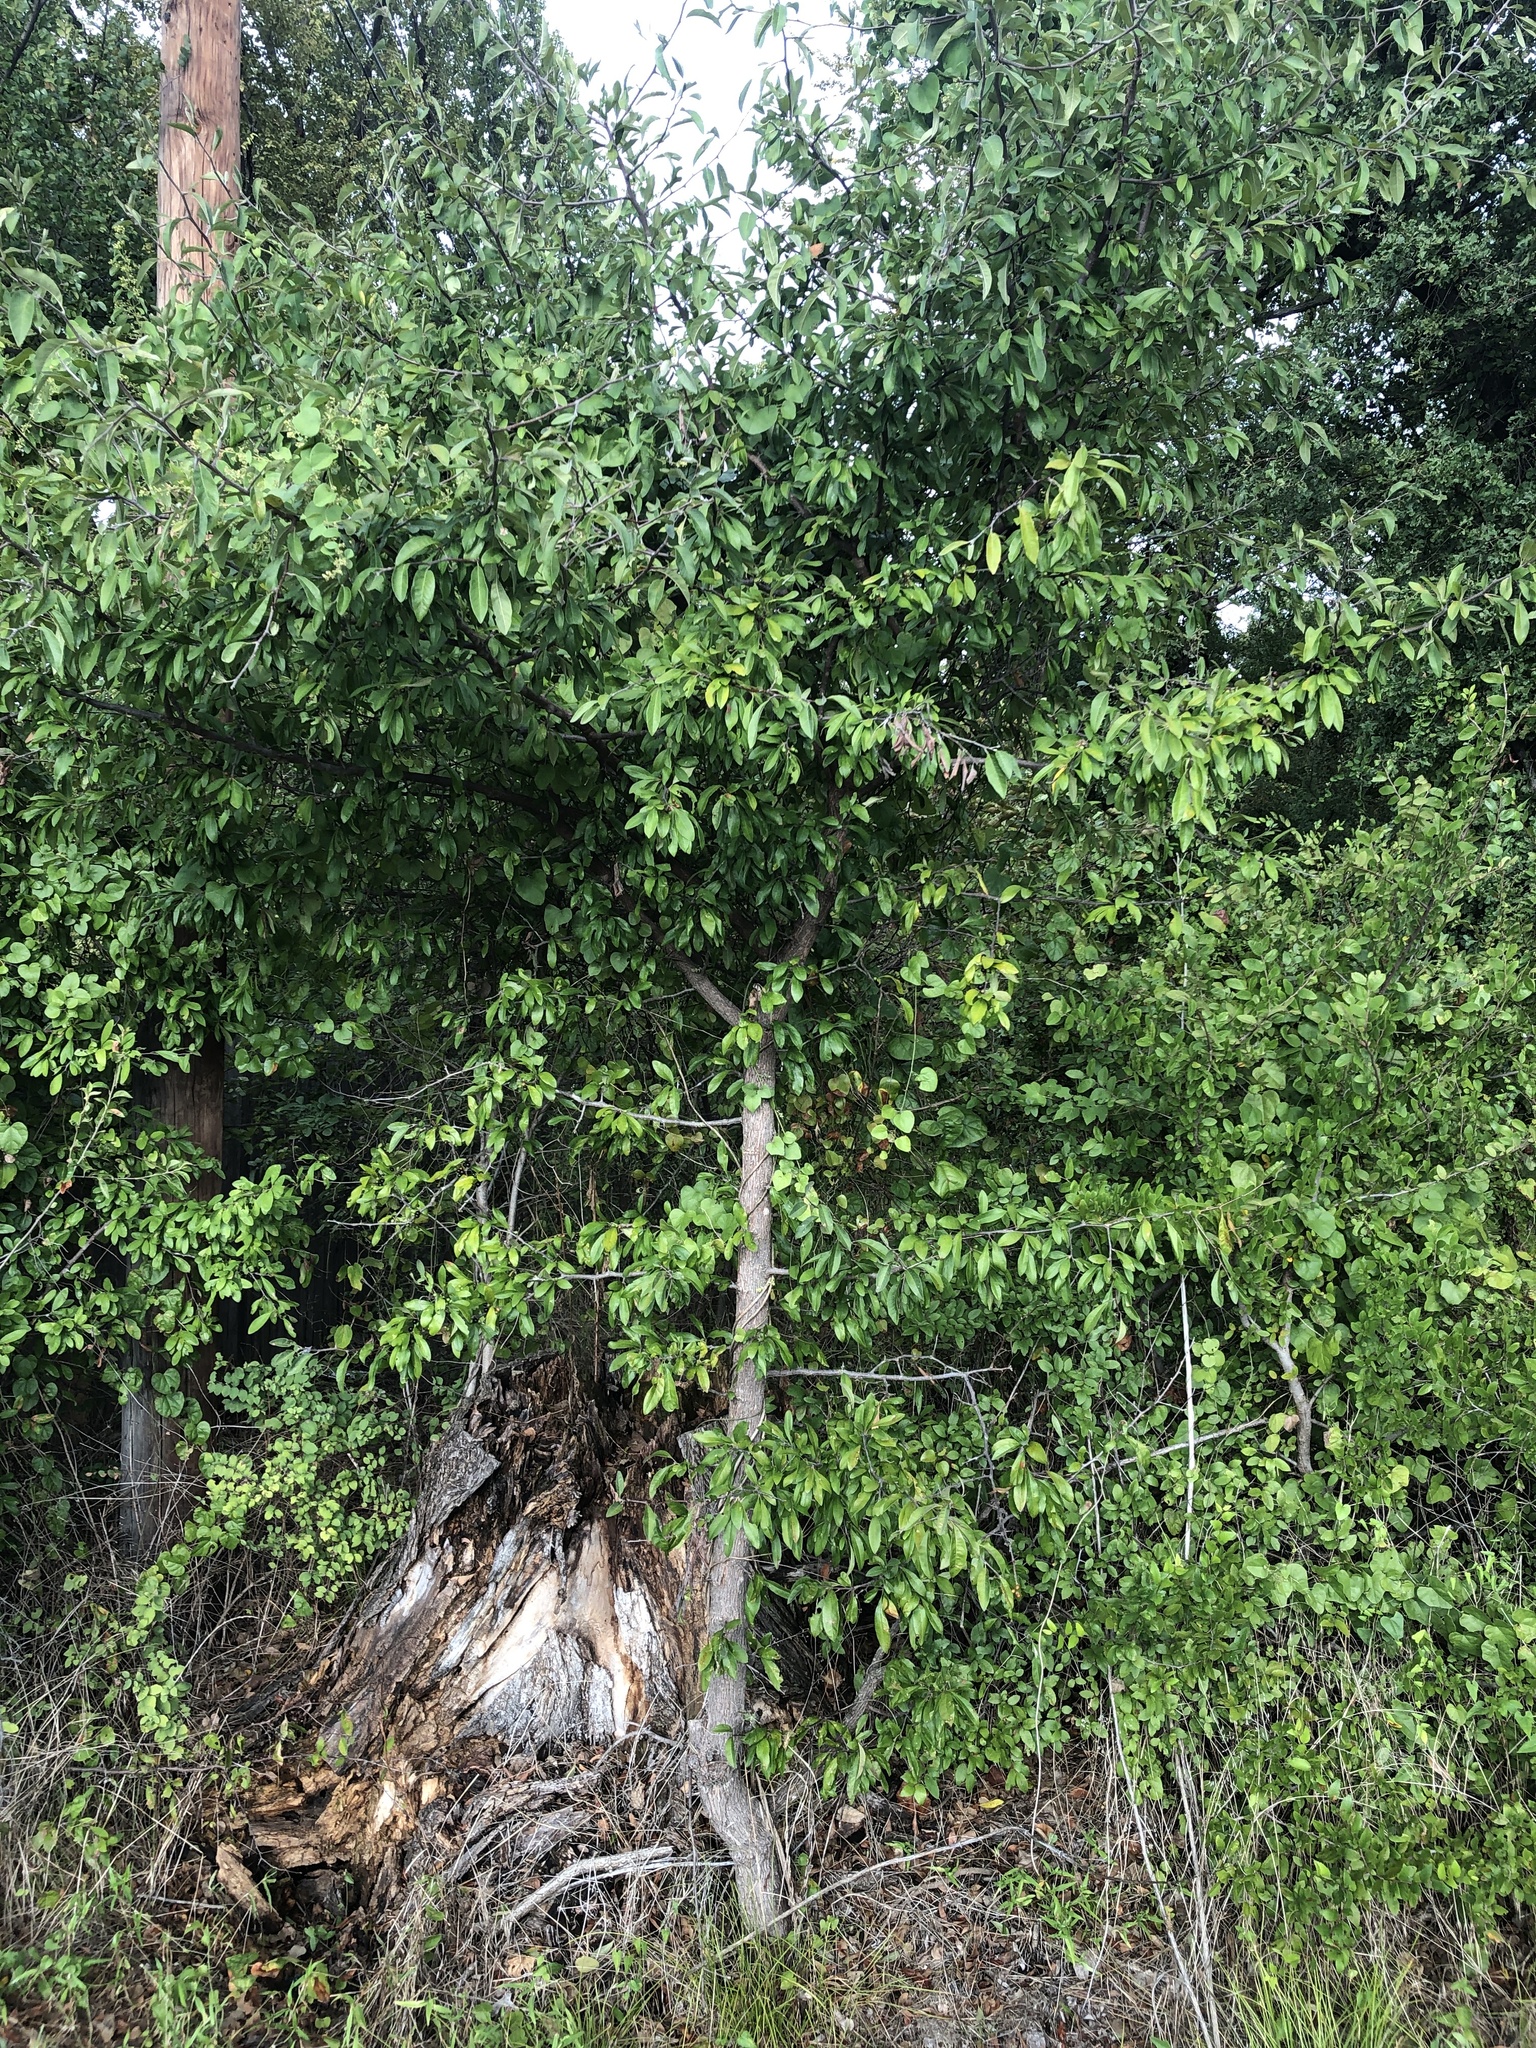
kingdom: Plantae
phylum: Tracheophyta
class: Magnoliopsida
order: Ericales
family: Sapotaceae
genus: Sideroxylon
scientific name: Sideroxylon lanuginosum
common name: Chittamwood
